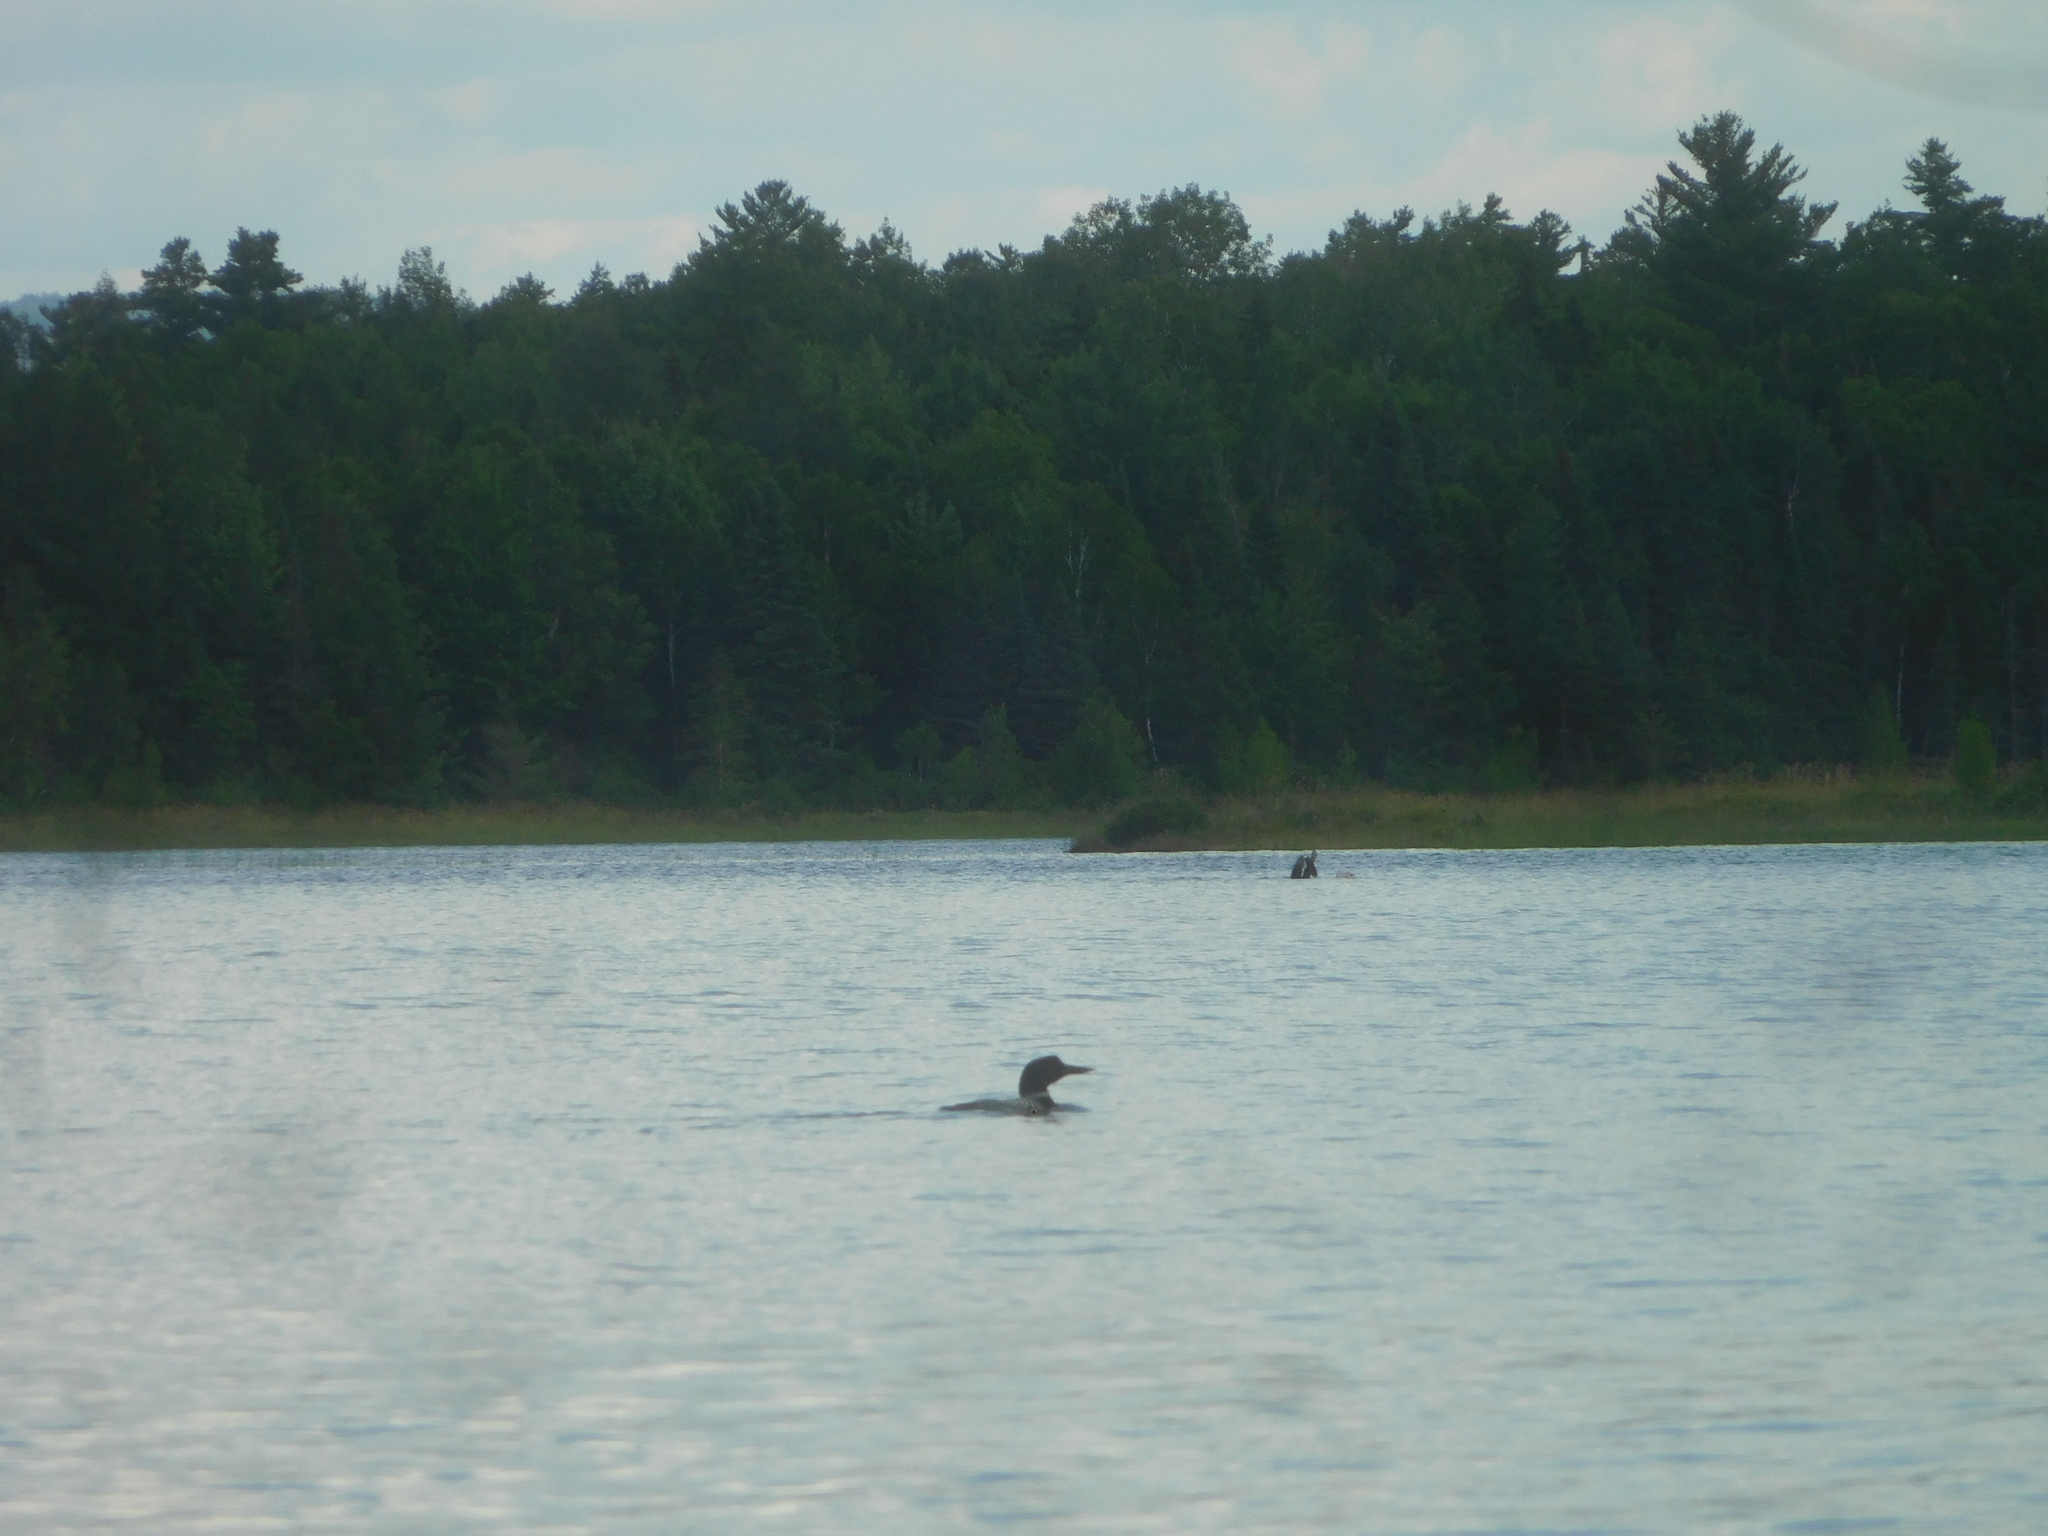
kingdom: Animalia
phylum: Chordata
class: Aves
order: Gaviiformes
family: Gaviidae
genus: Gavia
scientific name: Gavia immer
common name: Common loon
